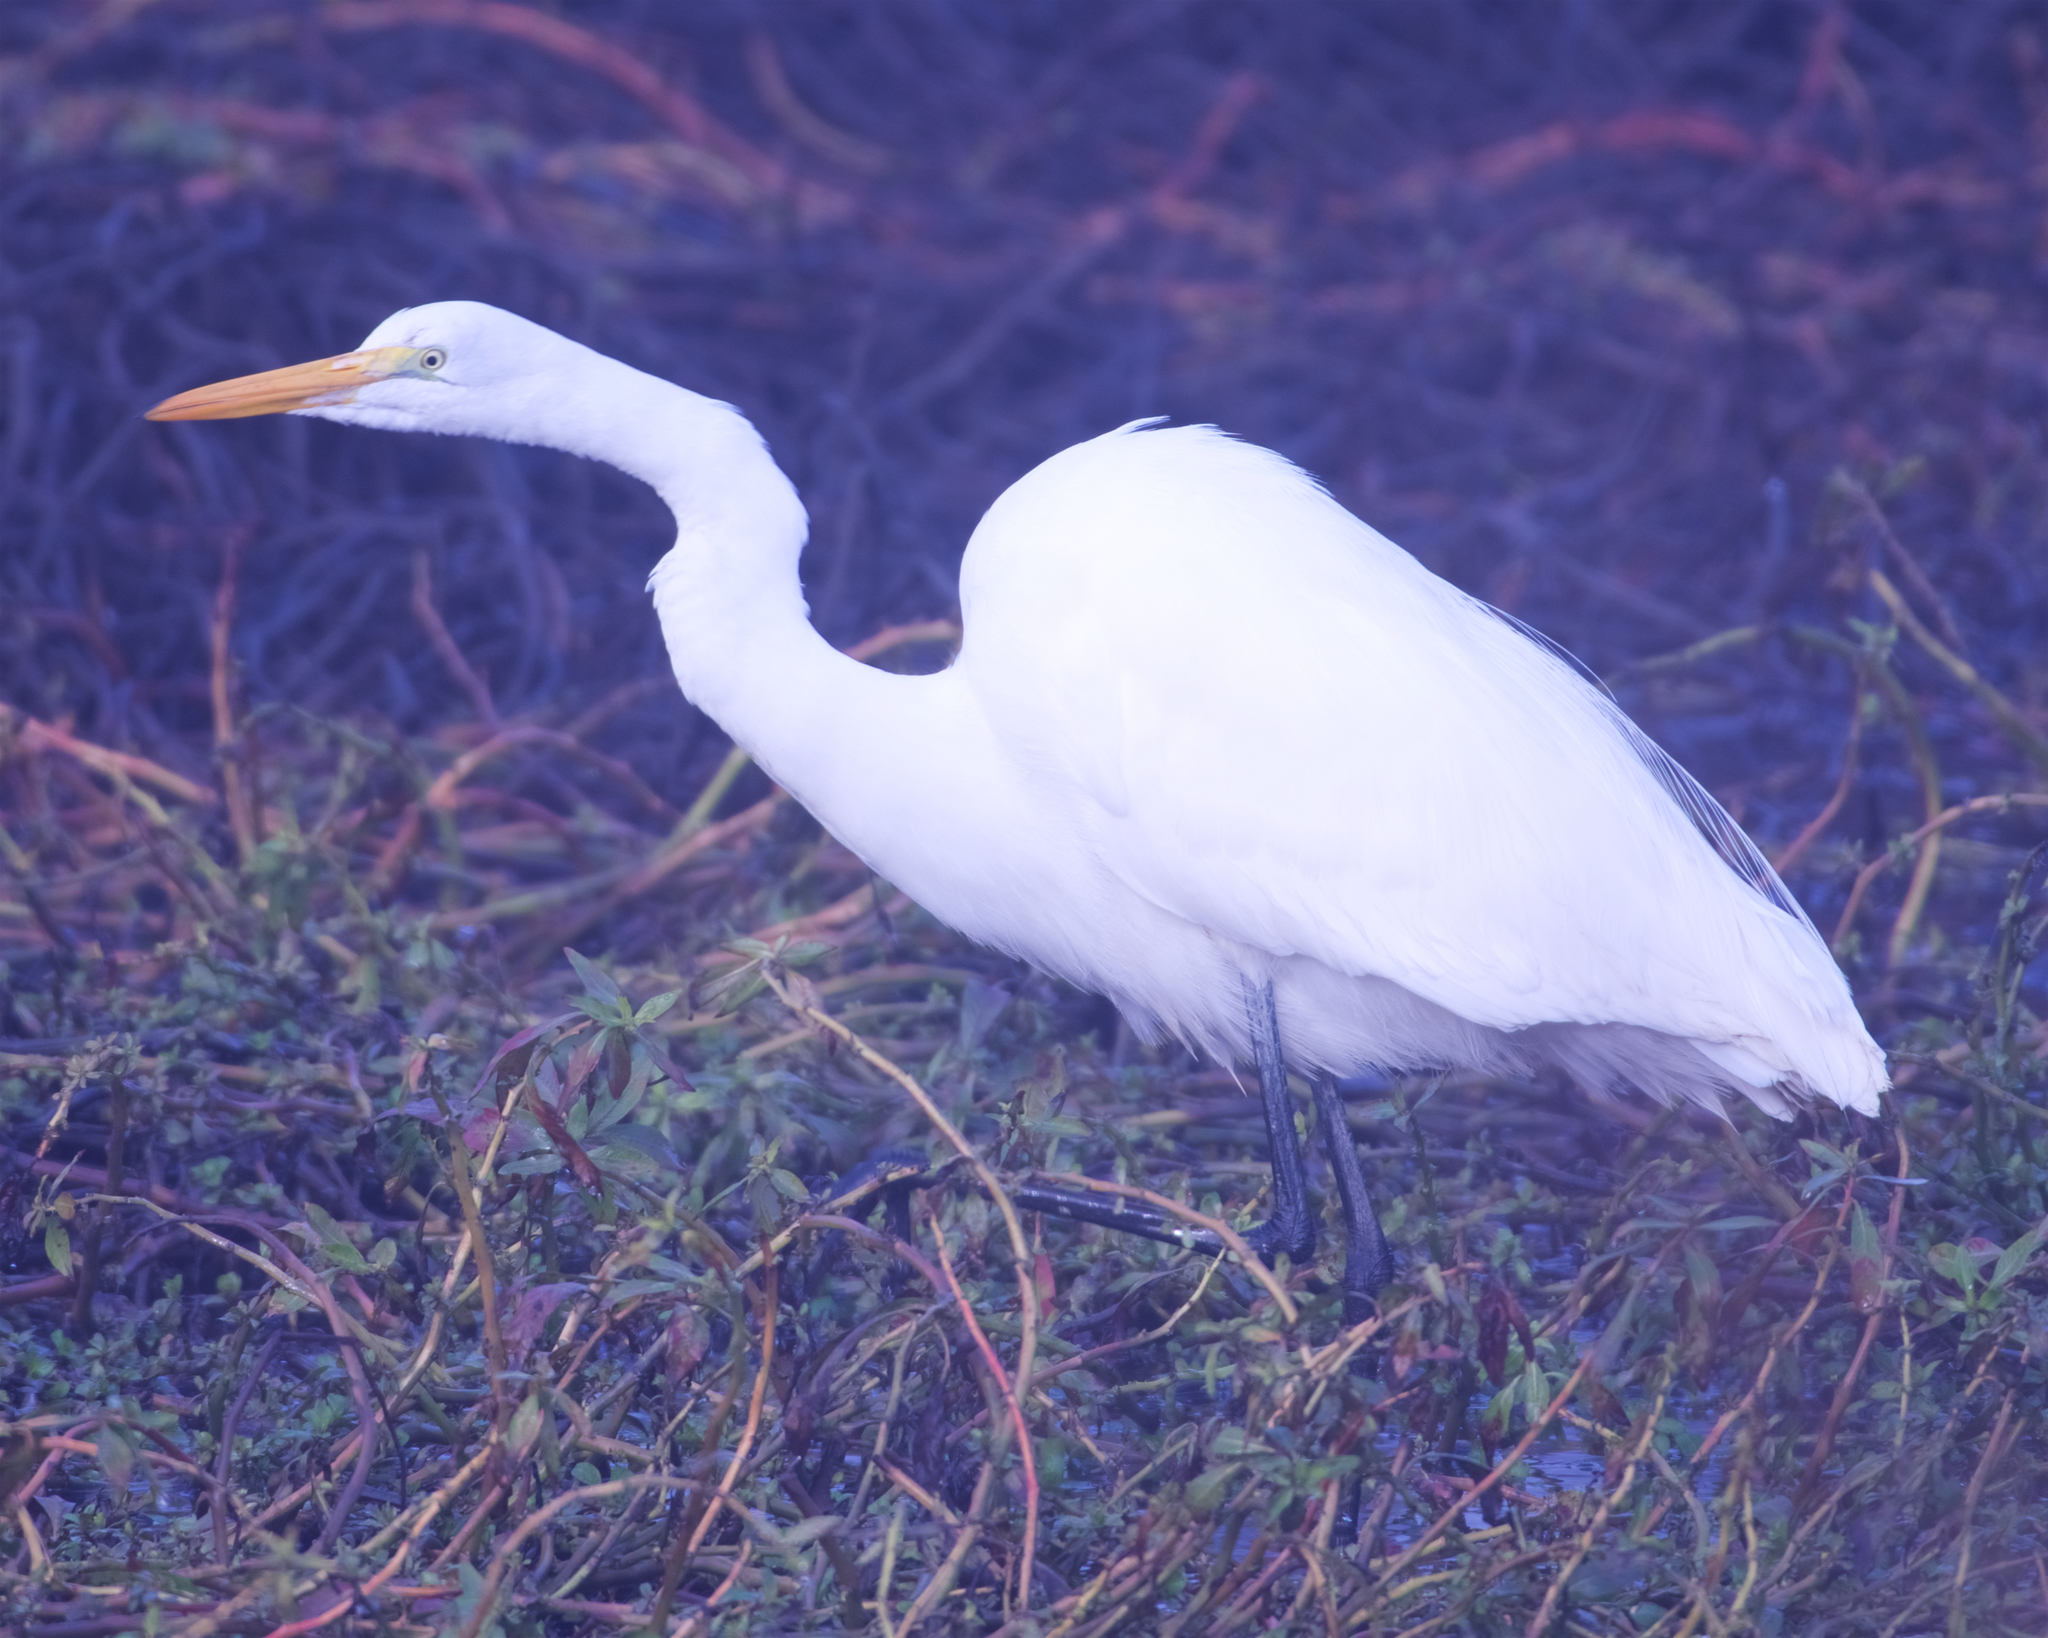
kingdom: Animalia
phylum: Chordata
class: Aves
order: Pelecaniformes
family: Ardeidae
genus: Ardea
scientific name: Ardea alba
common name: Great egret
